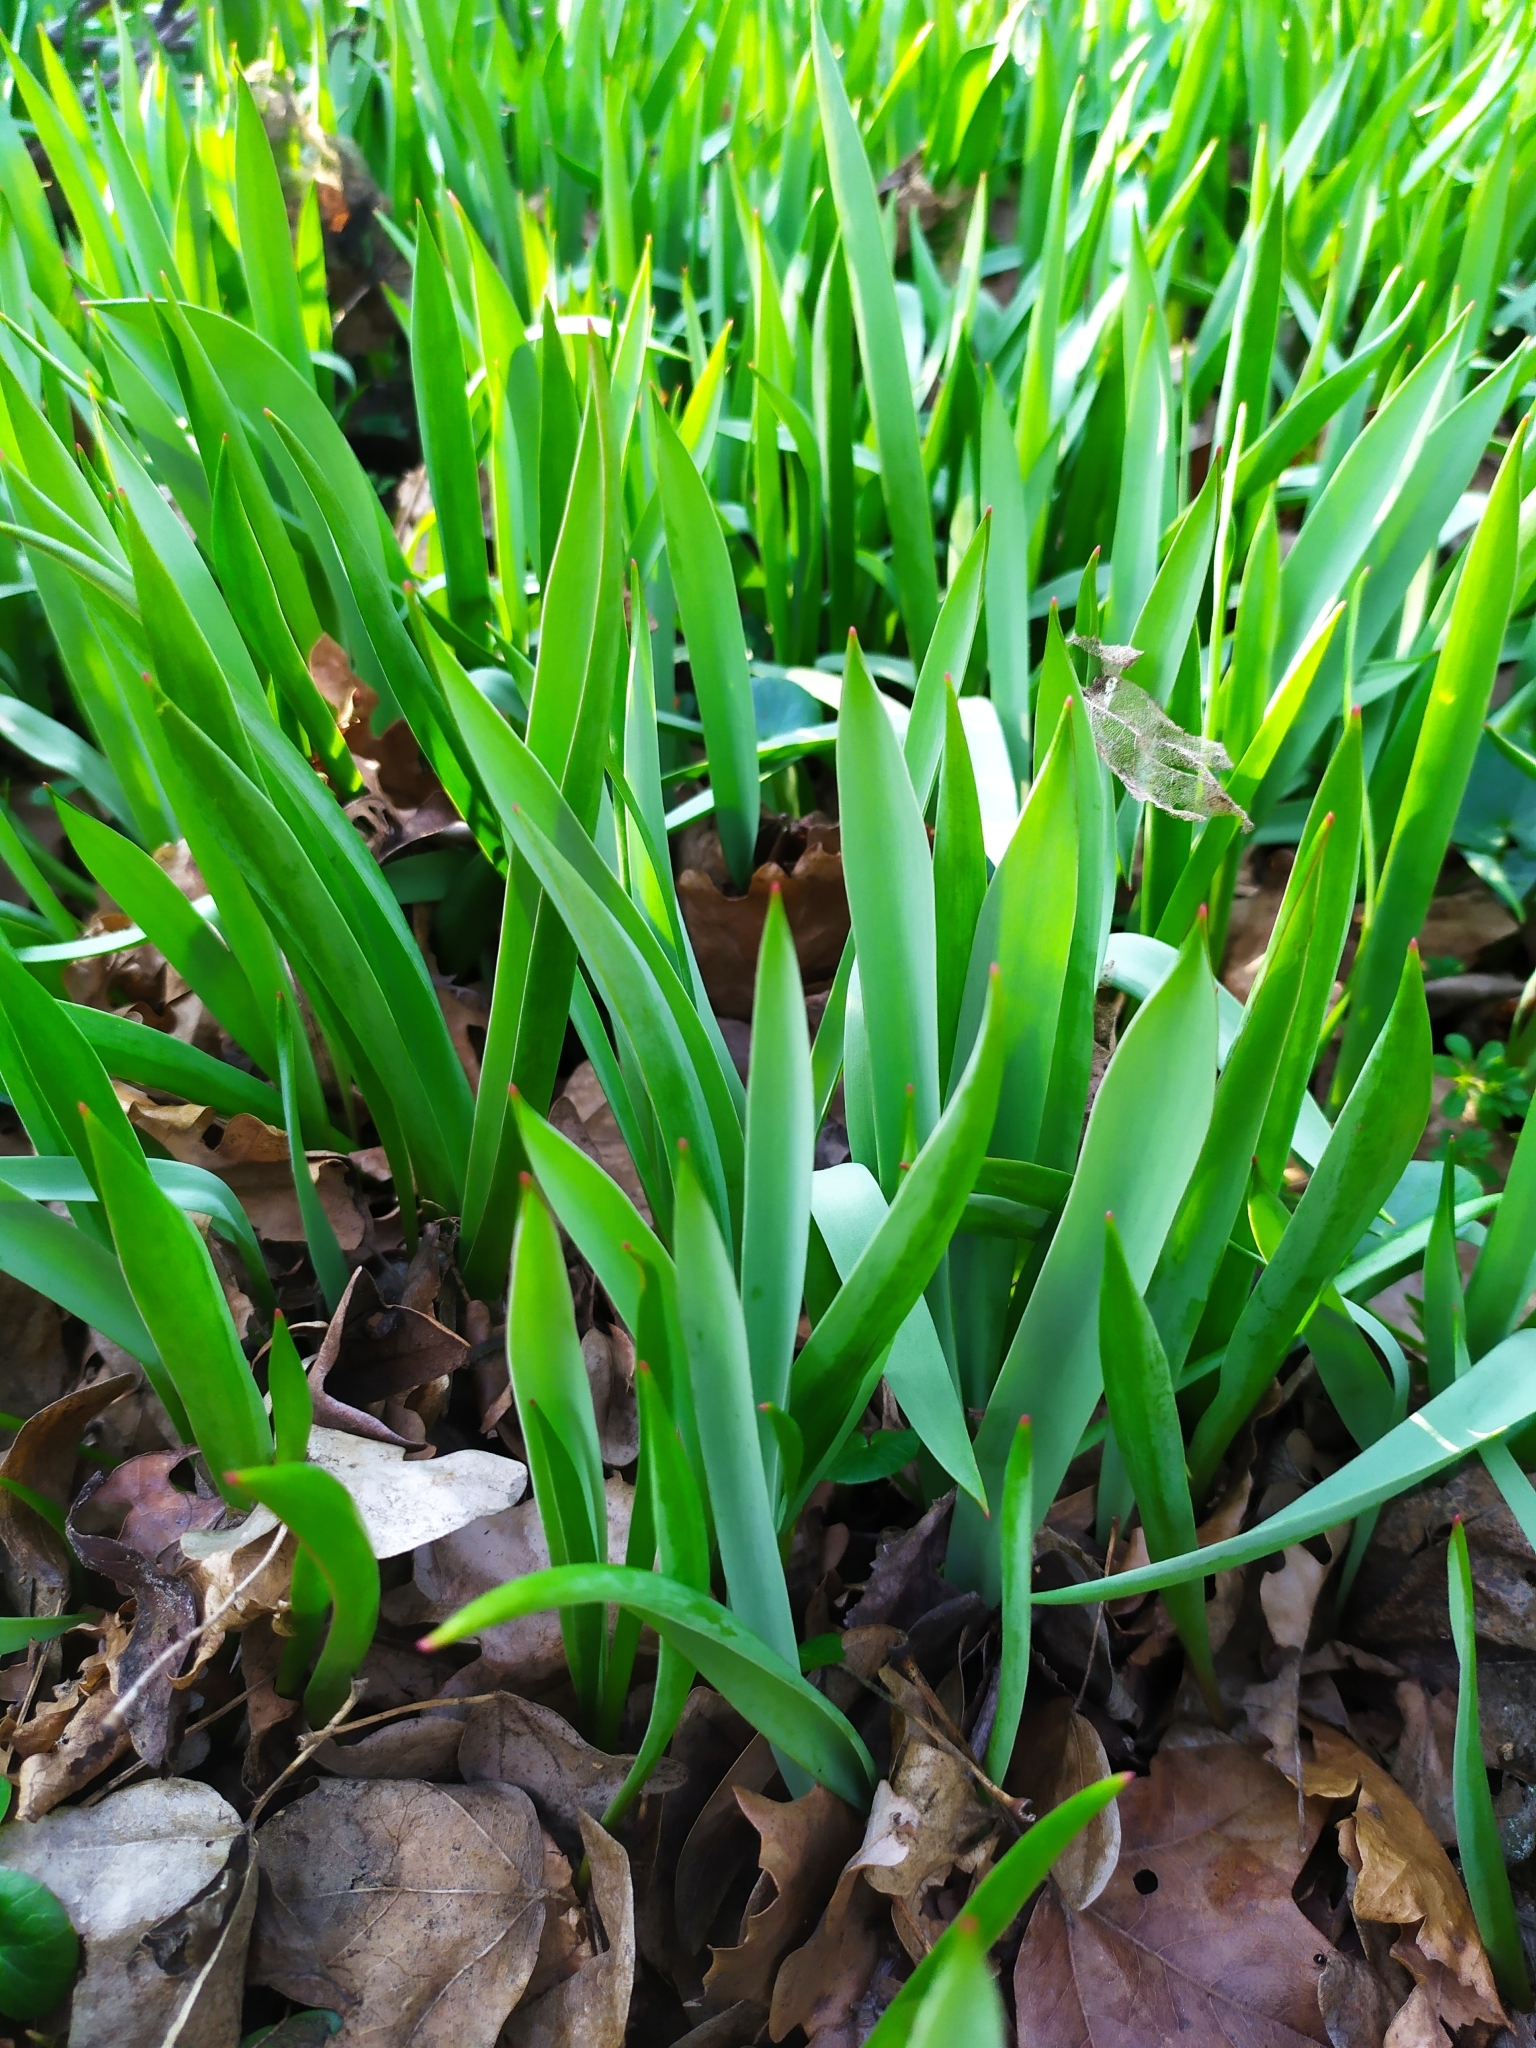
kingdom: Plantae
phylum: Tracheophyta
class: Liliopsida
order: Liliales
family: Liliaceae
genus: Tulipa
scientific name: Tulipa sylvestris
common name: Wild tulip
